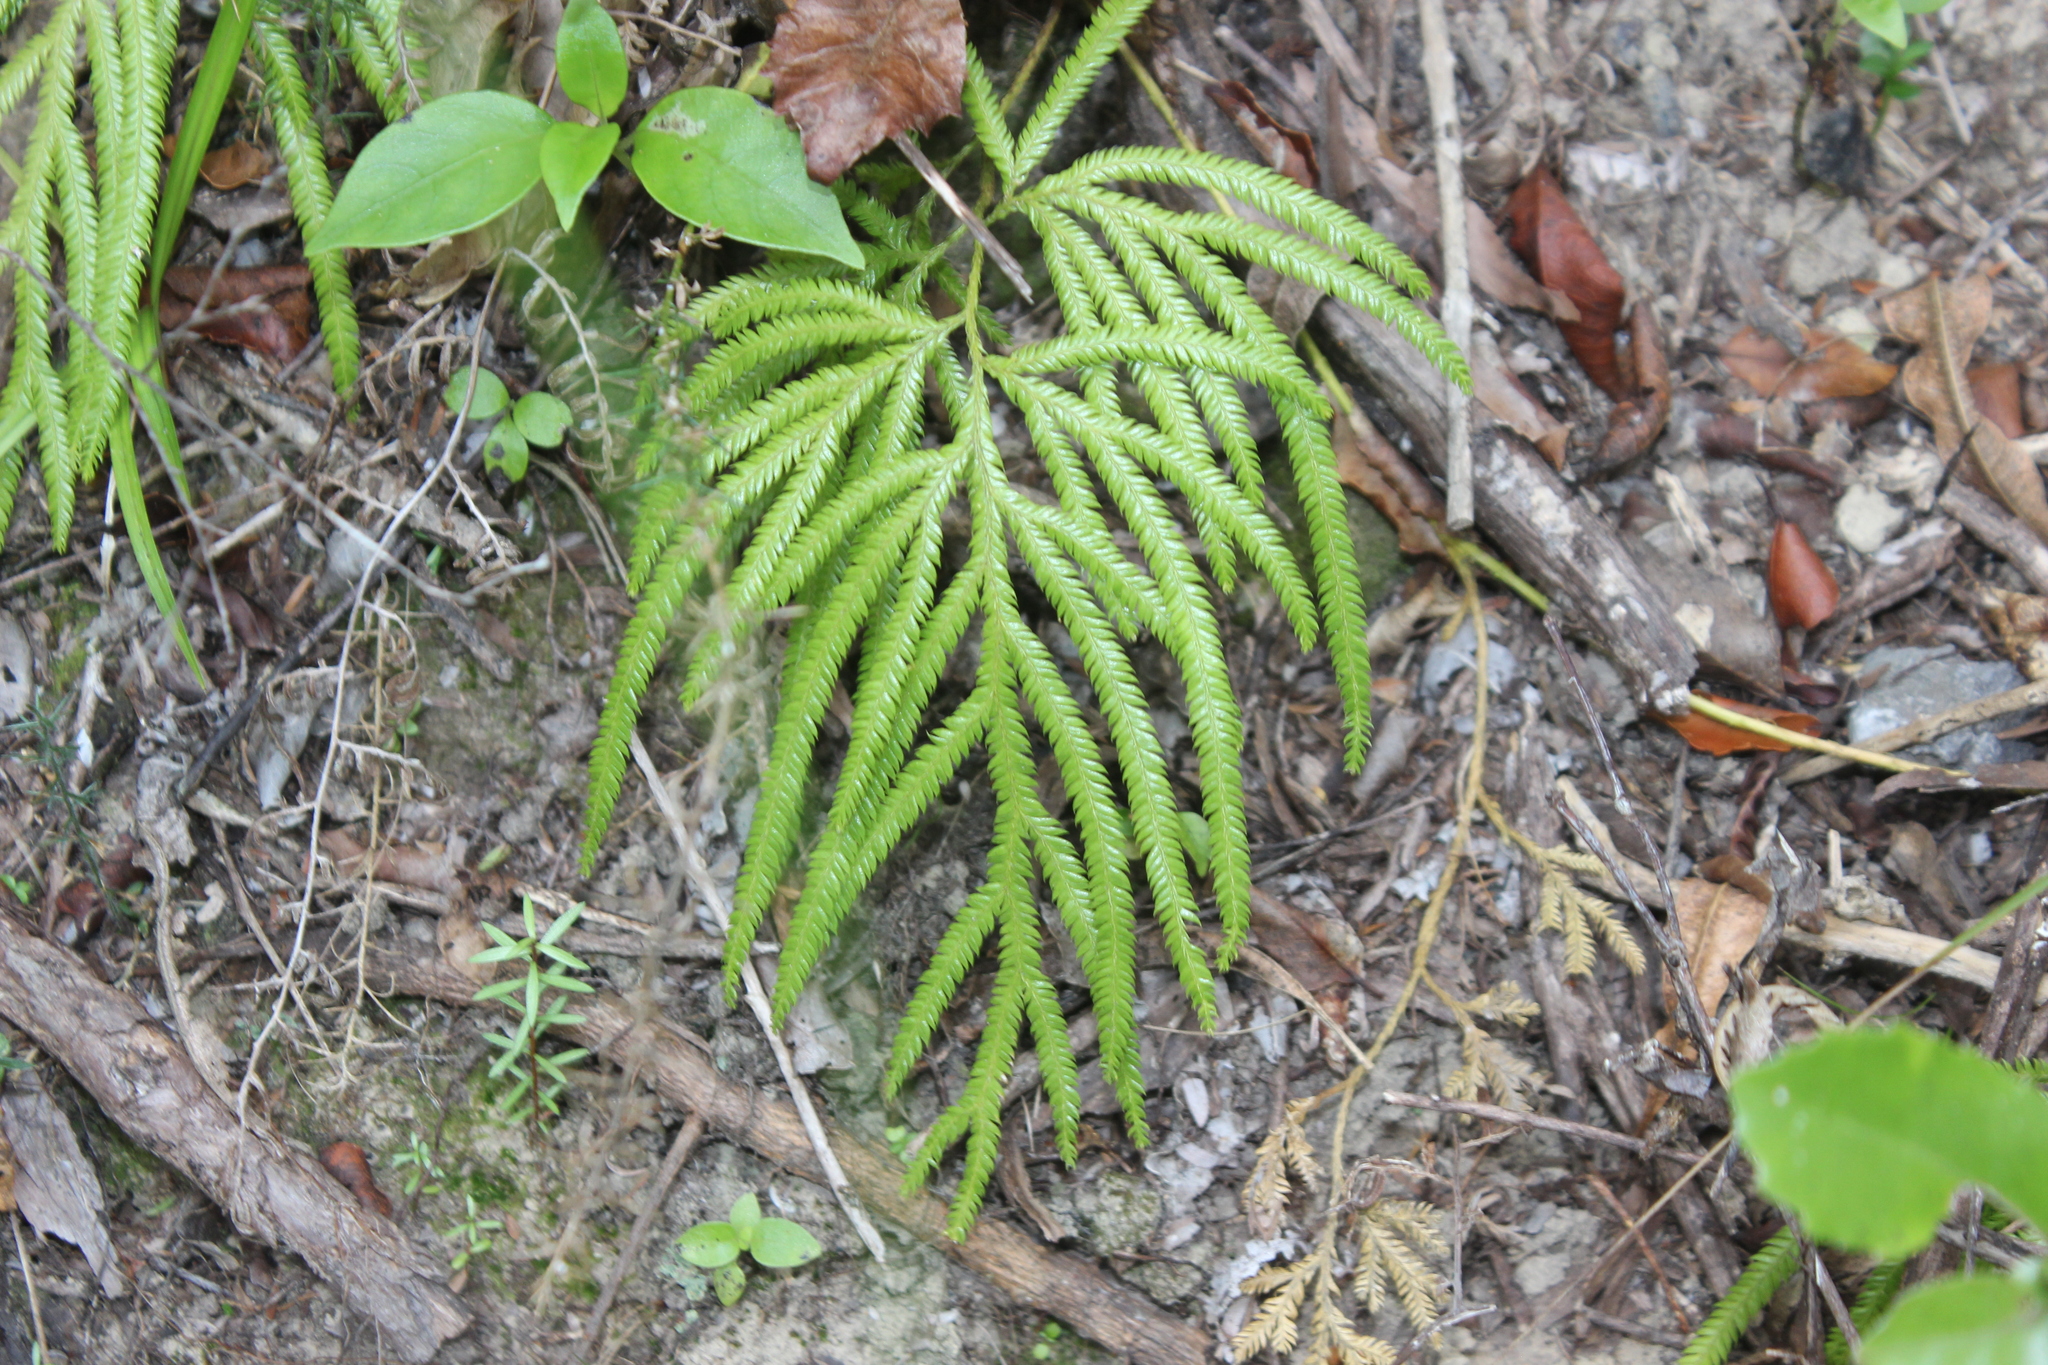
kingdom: Plantae
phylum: Tracheophyta
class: Lycopodiopsida
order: Lycopodiales
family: Lycopodiaceae
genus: Lycopodium
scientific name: Lycopodium volubile
